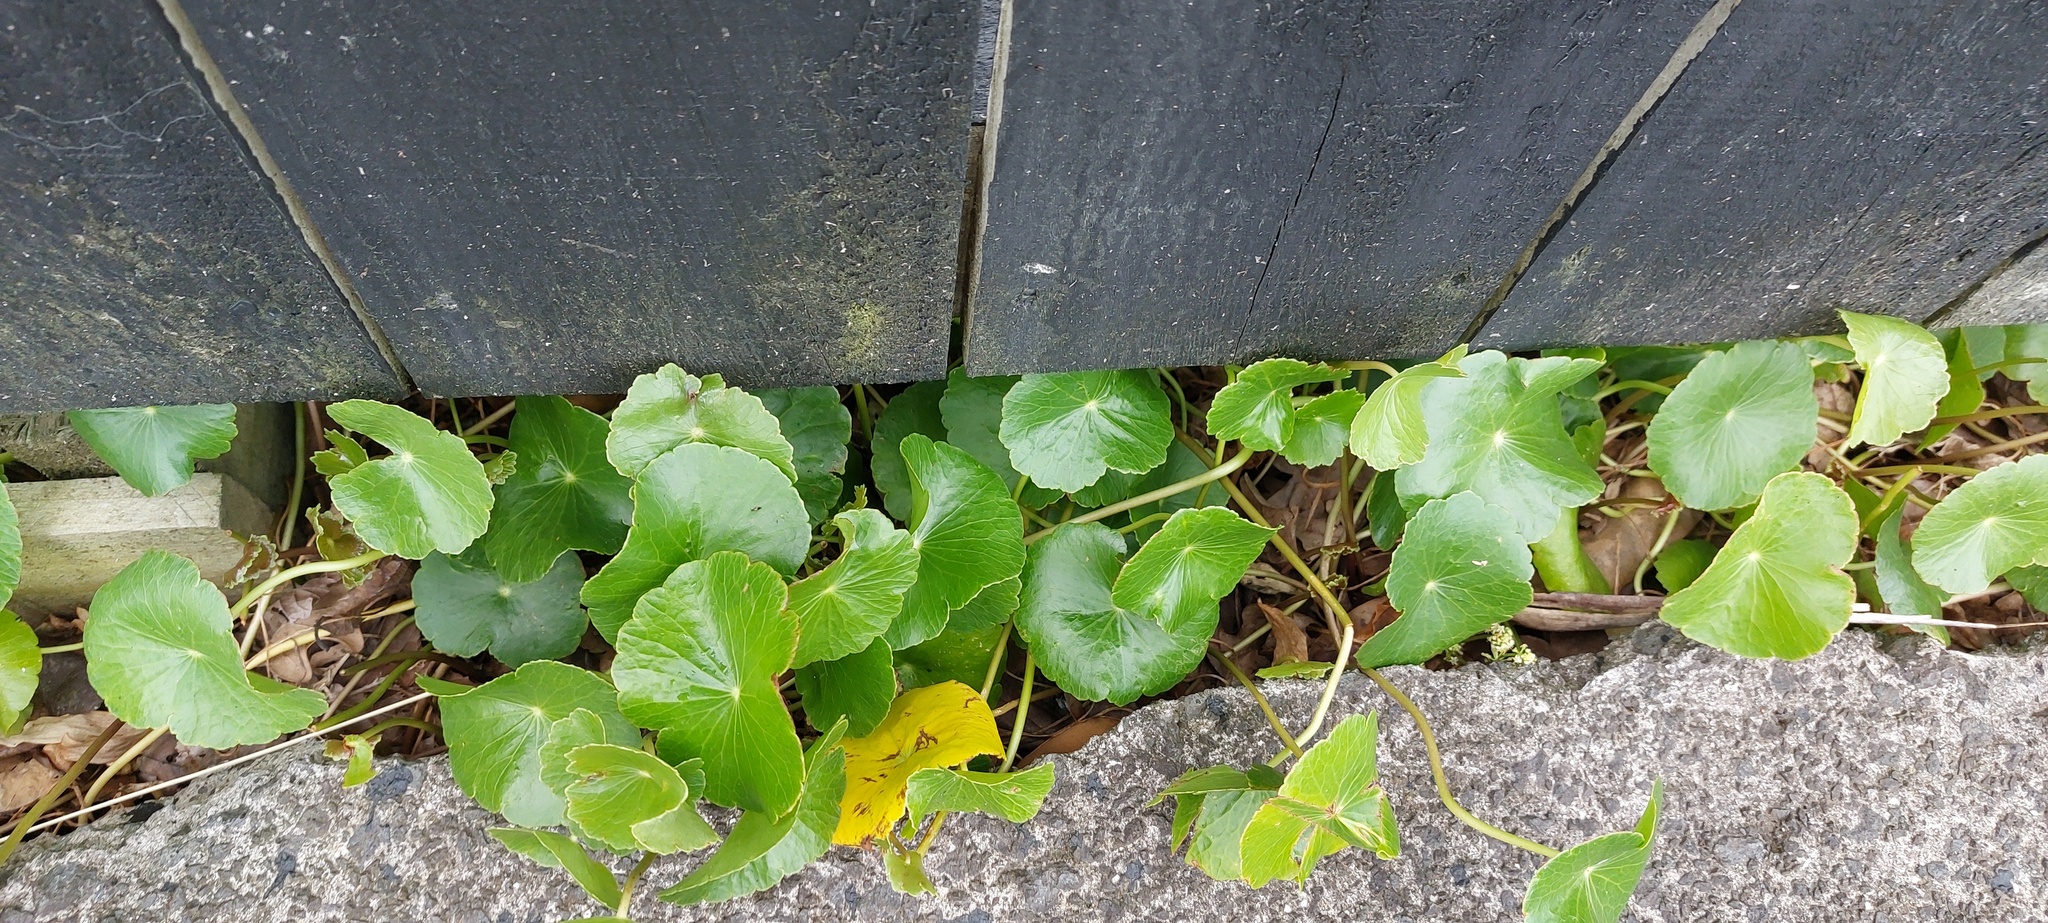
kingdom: Plantae
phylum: Tracheophyta
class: Magnoliopsida
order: Apiales
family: Araliaceae
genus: Hydrocotyle
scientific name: Hydrocotyle bonariensis
